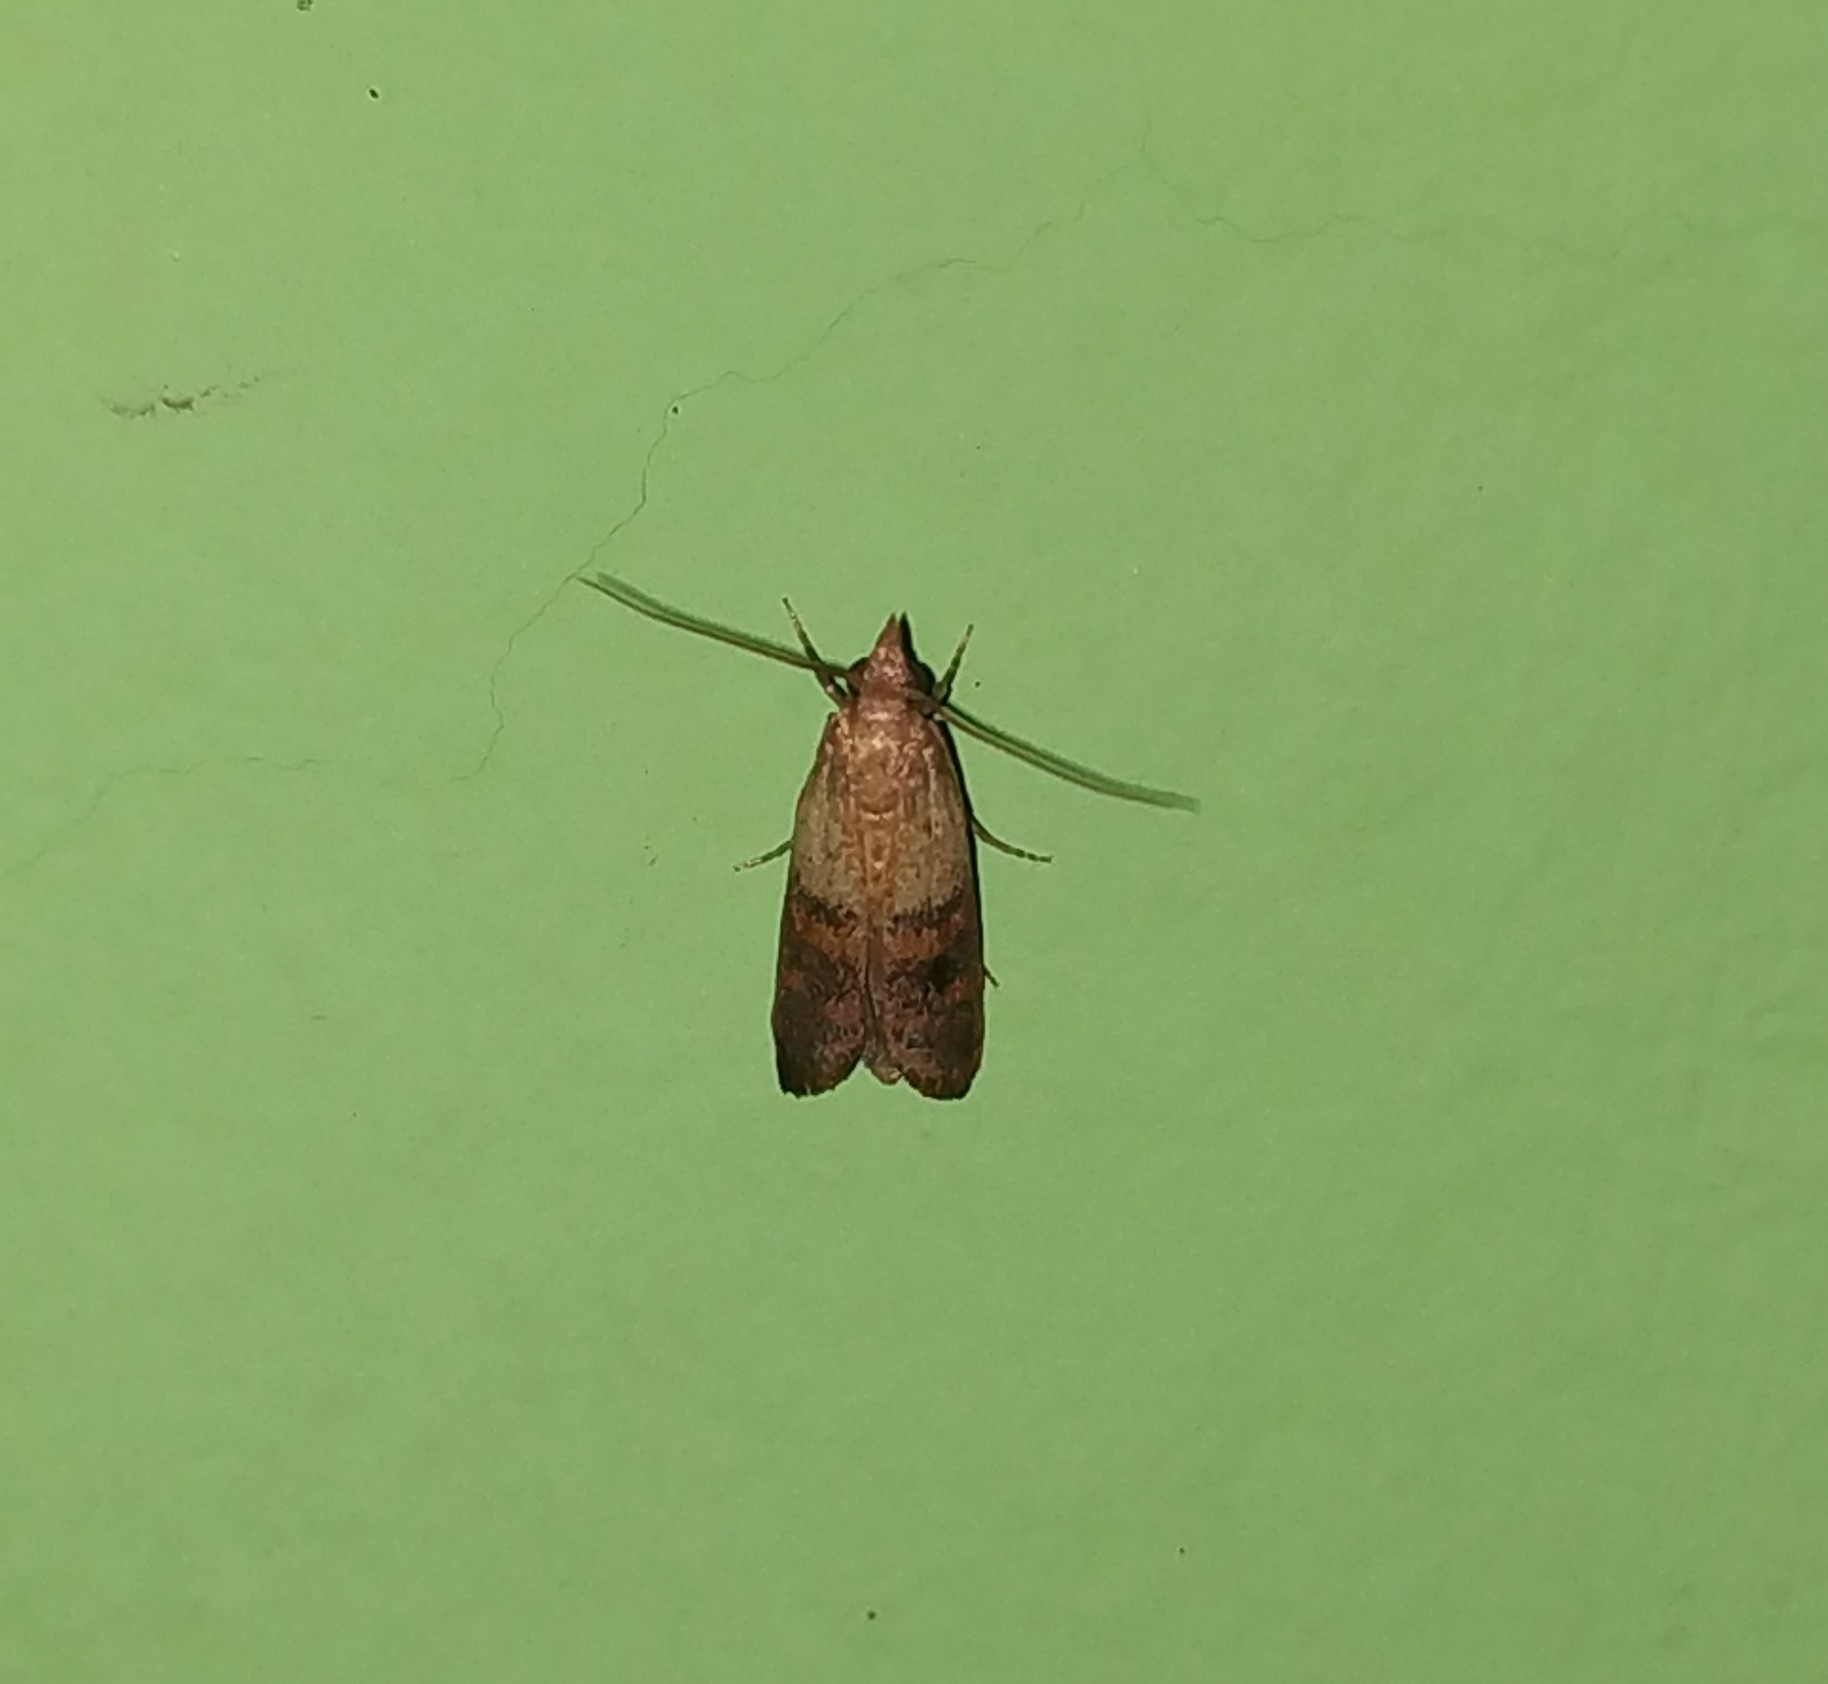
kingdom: Animalia
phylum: Arthropoda
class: Insecta
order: Lepidoptera
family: Pyralidae
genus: Plodia
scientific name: Plodia interpunctella
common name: Indian meal moth
